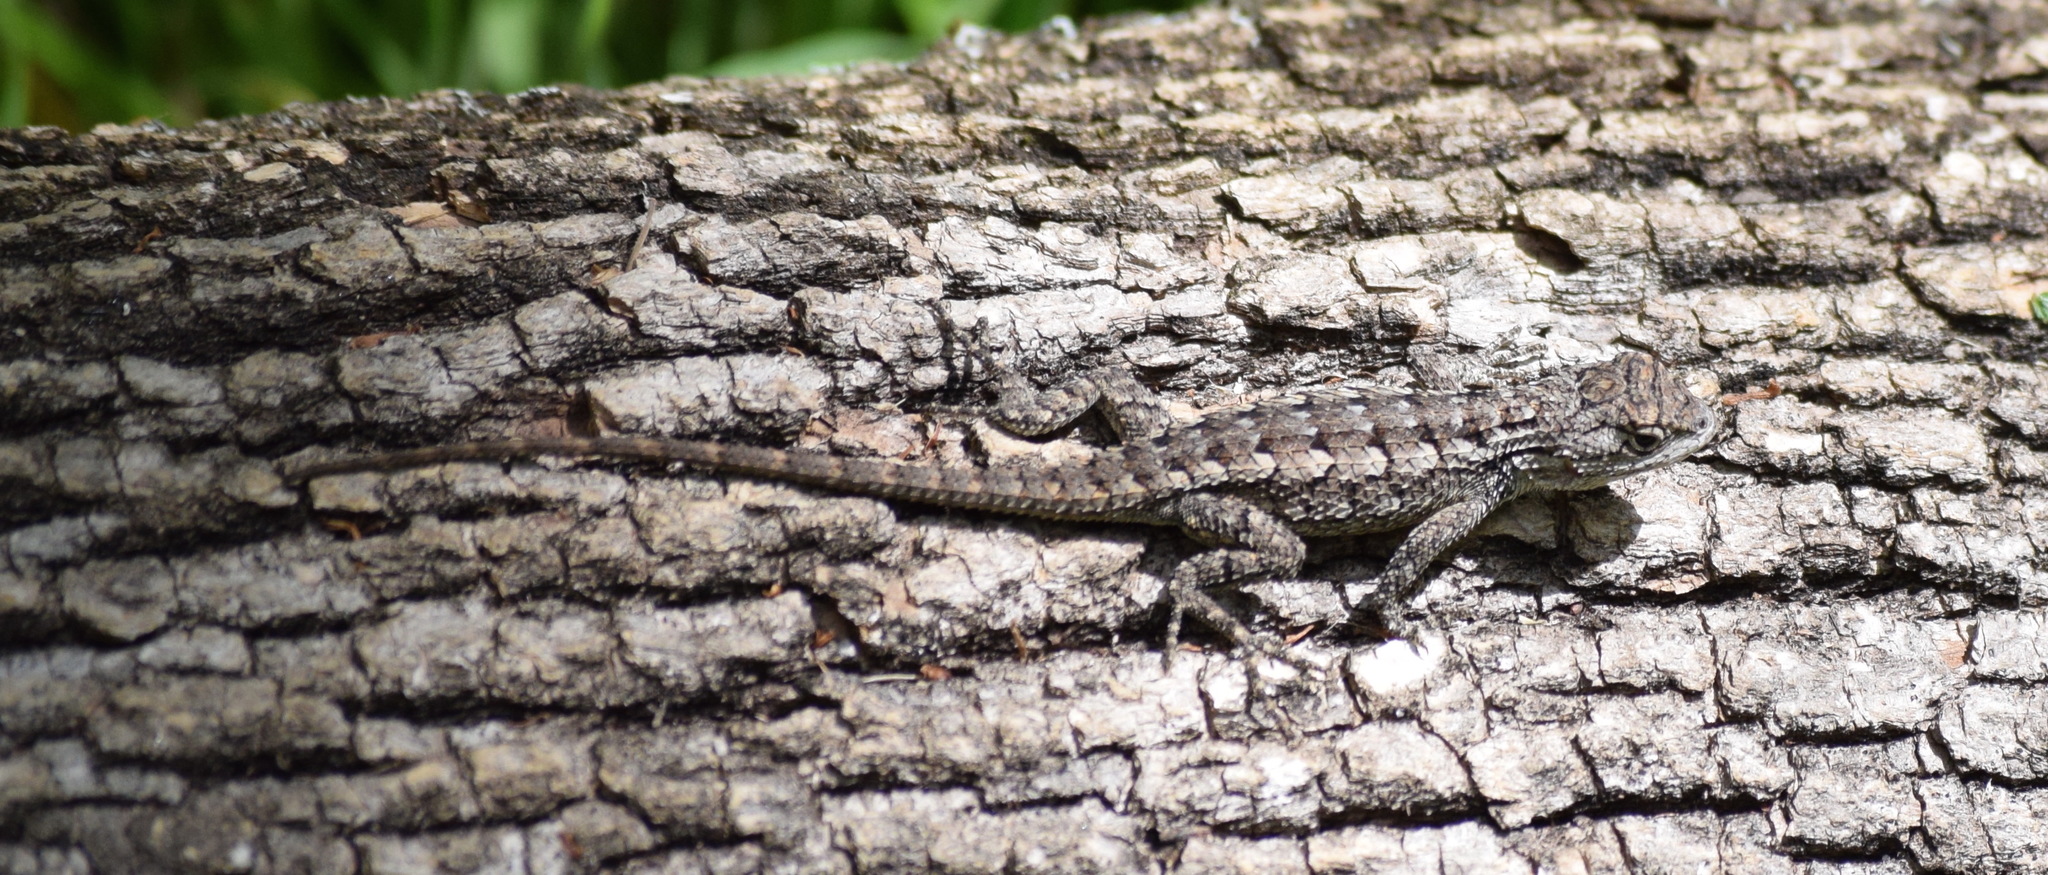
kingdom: Animalia
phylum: Chordata
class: Squamata
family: Phrynosomatidae
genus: Sceloporus
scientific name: Sceloporus olivaceus
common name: Texas spiny lizard
